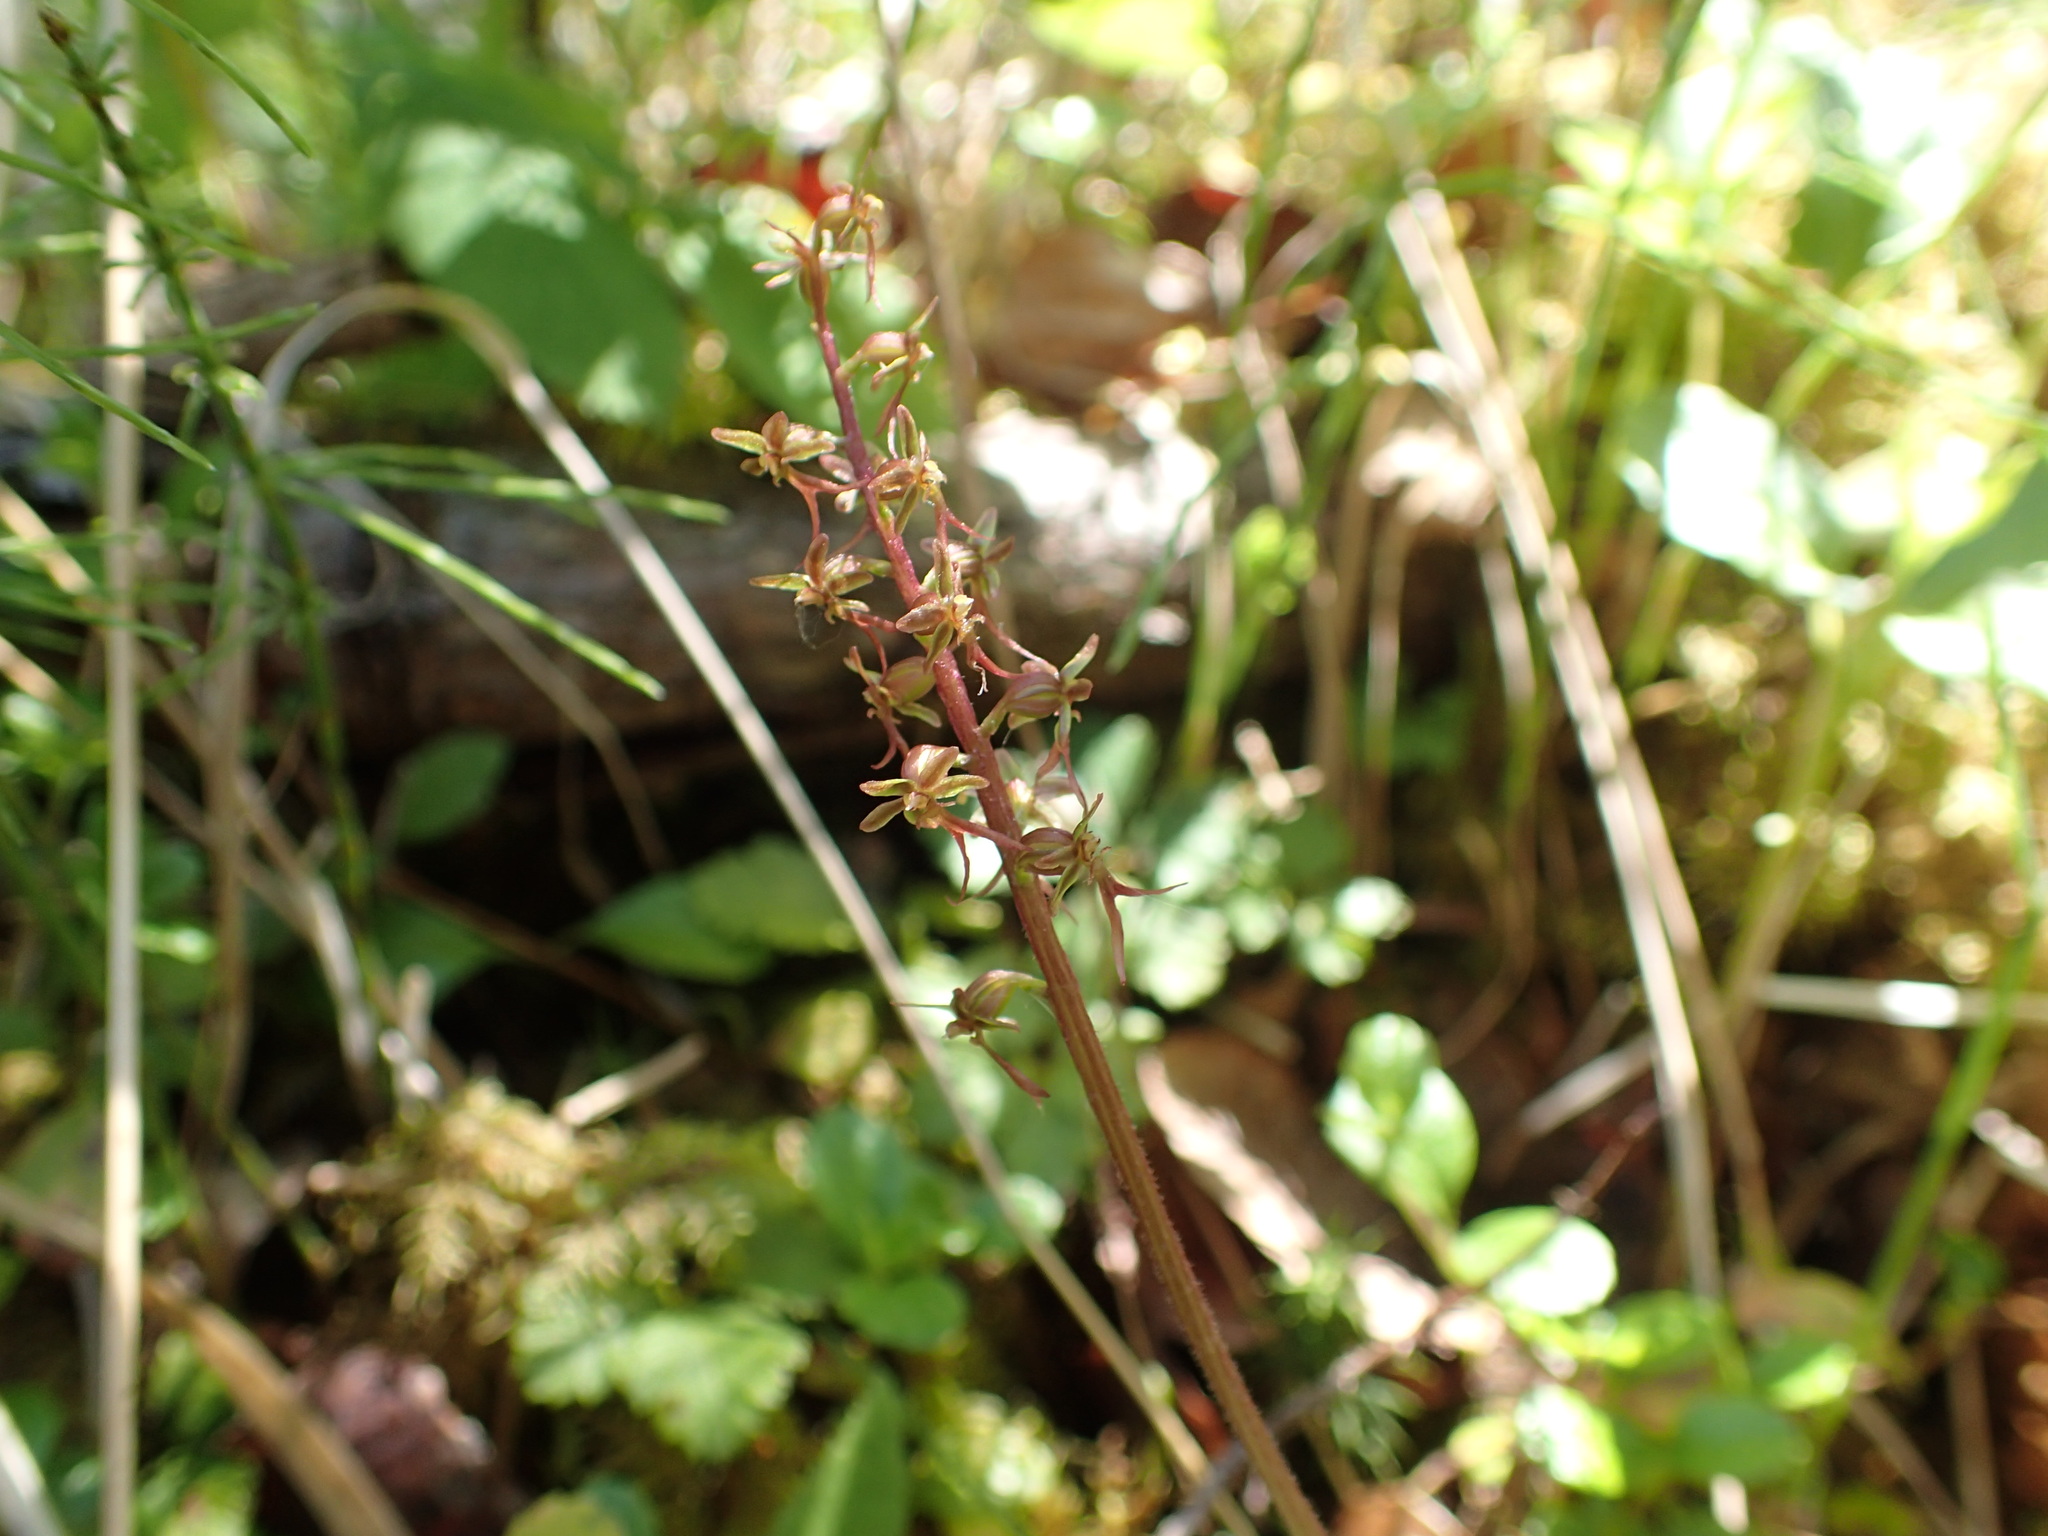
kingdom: Plantae
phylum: Tracheophyta
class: Liliopsida
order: Asparagales
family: Orchidaceae
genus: Neottia
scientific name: Neottia cordata
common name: Lesser twayblade
